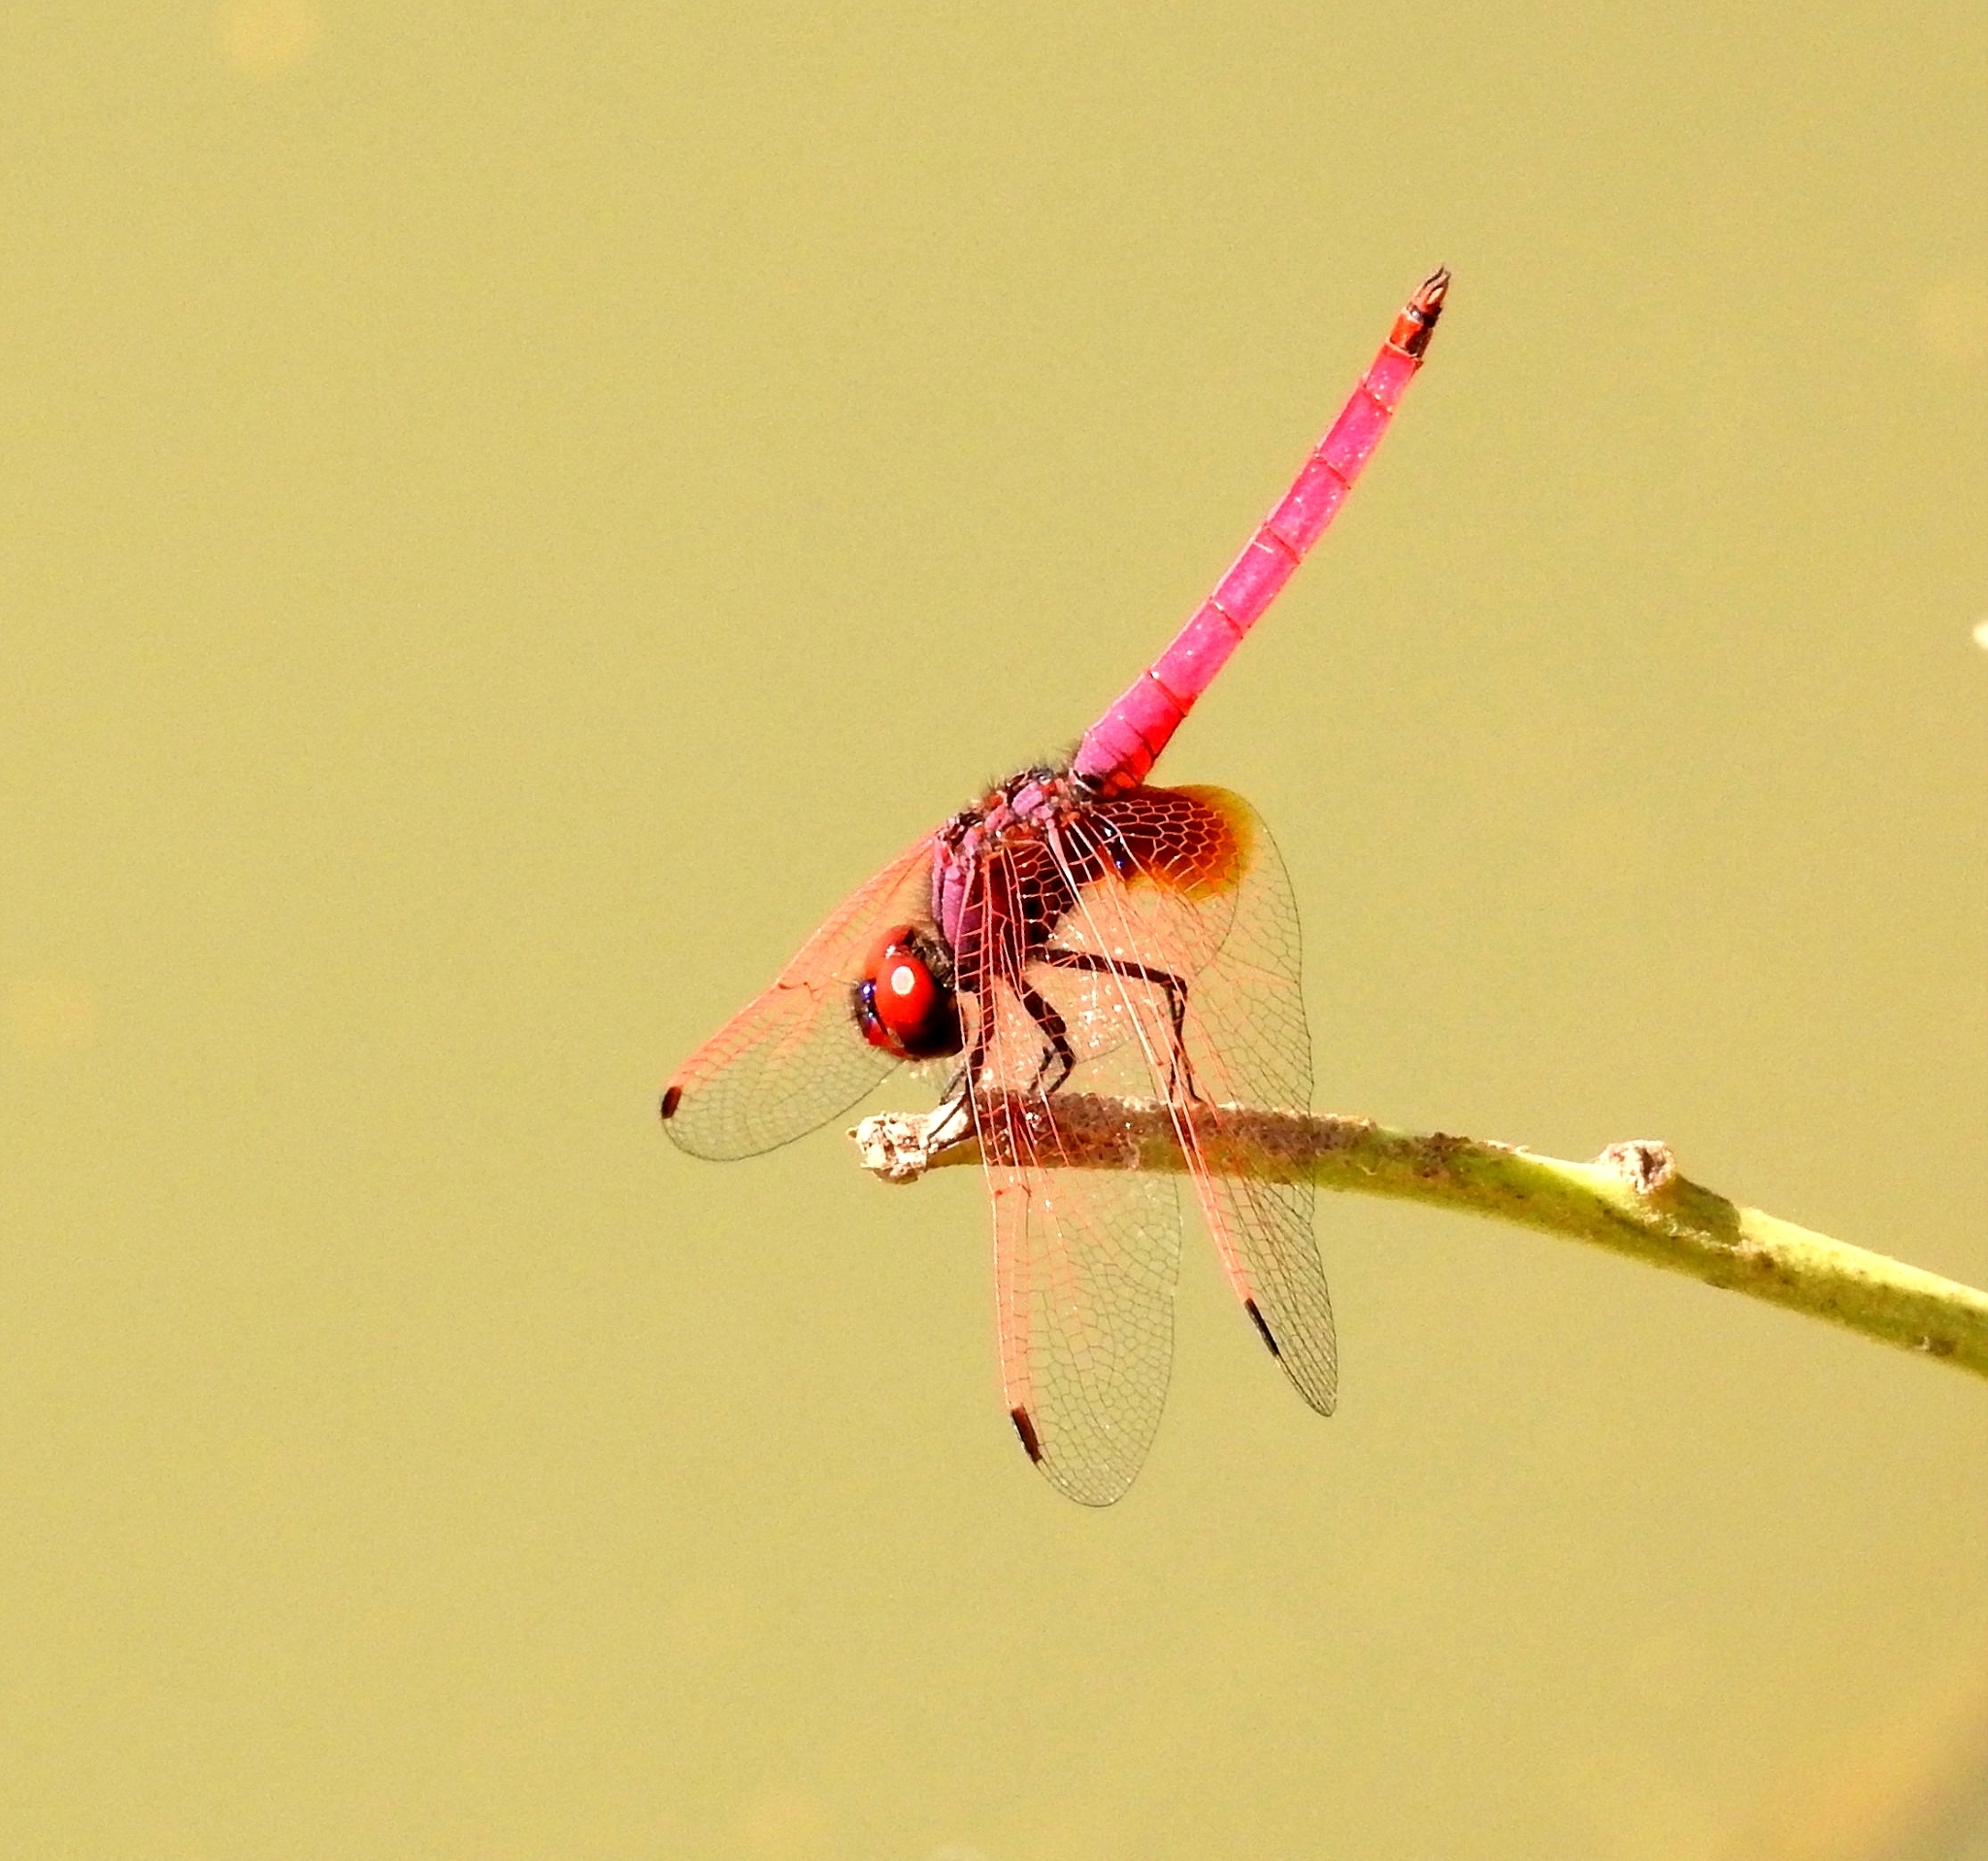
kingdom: Animalia
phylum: Arthropoda
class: Insecta
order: Odonata
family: Libellulidae
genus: Trithemis
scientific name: Trithemis aurora
